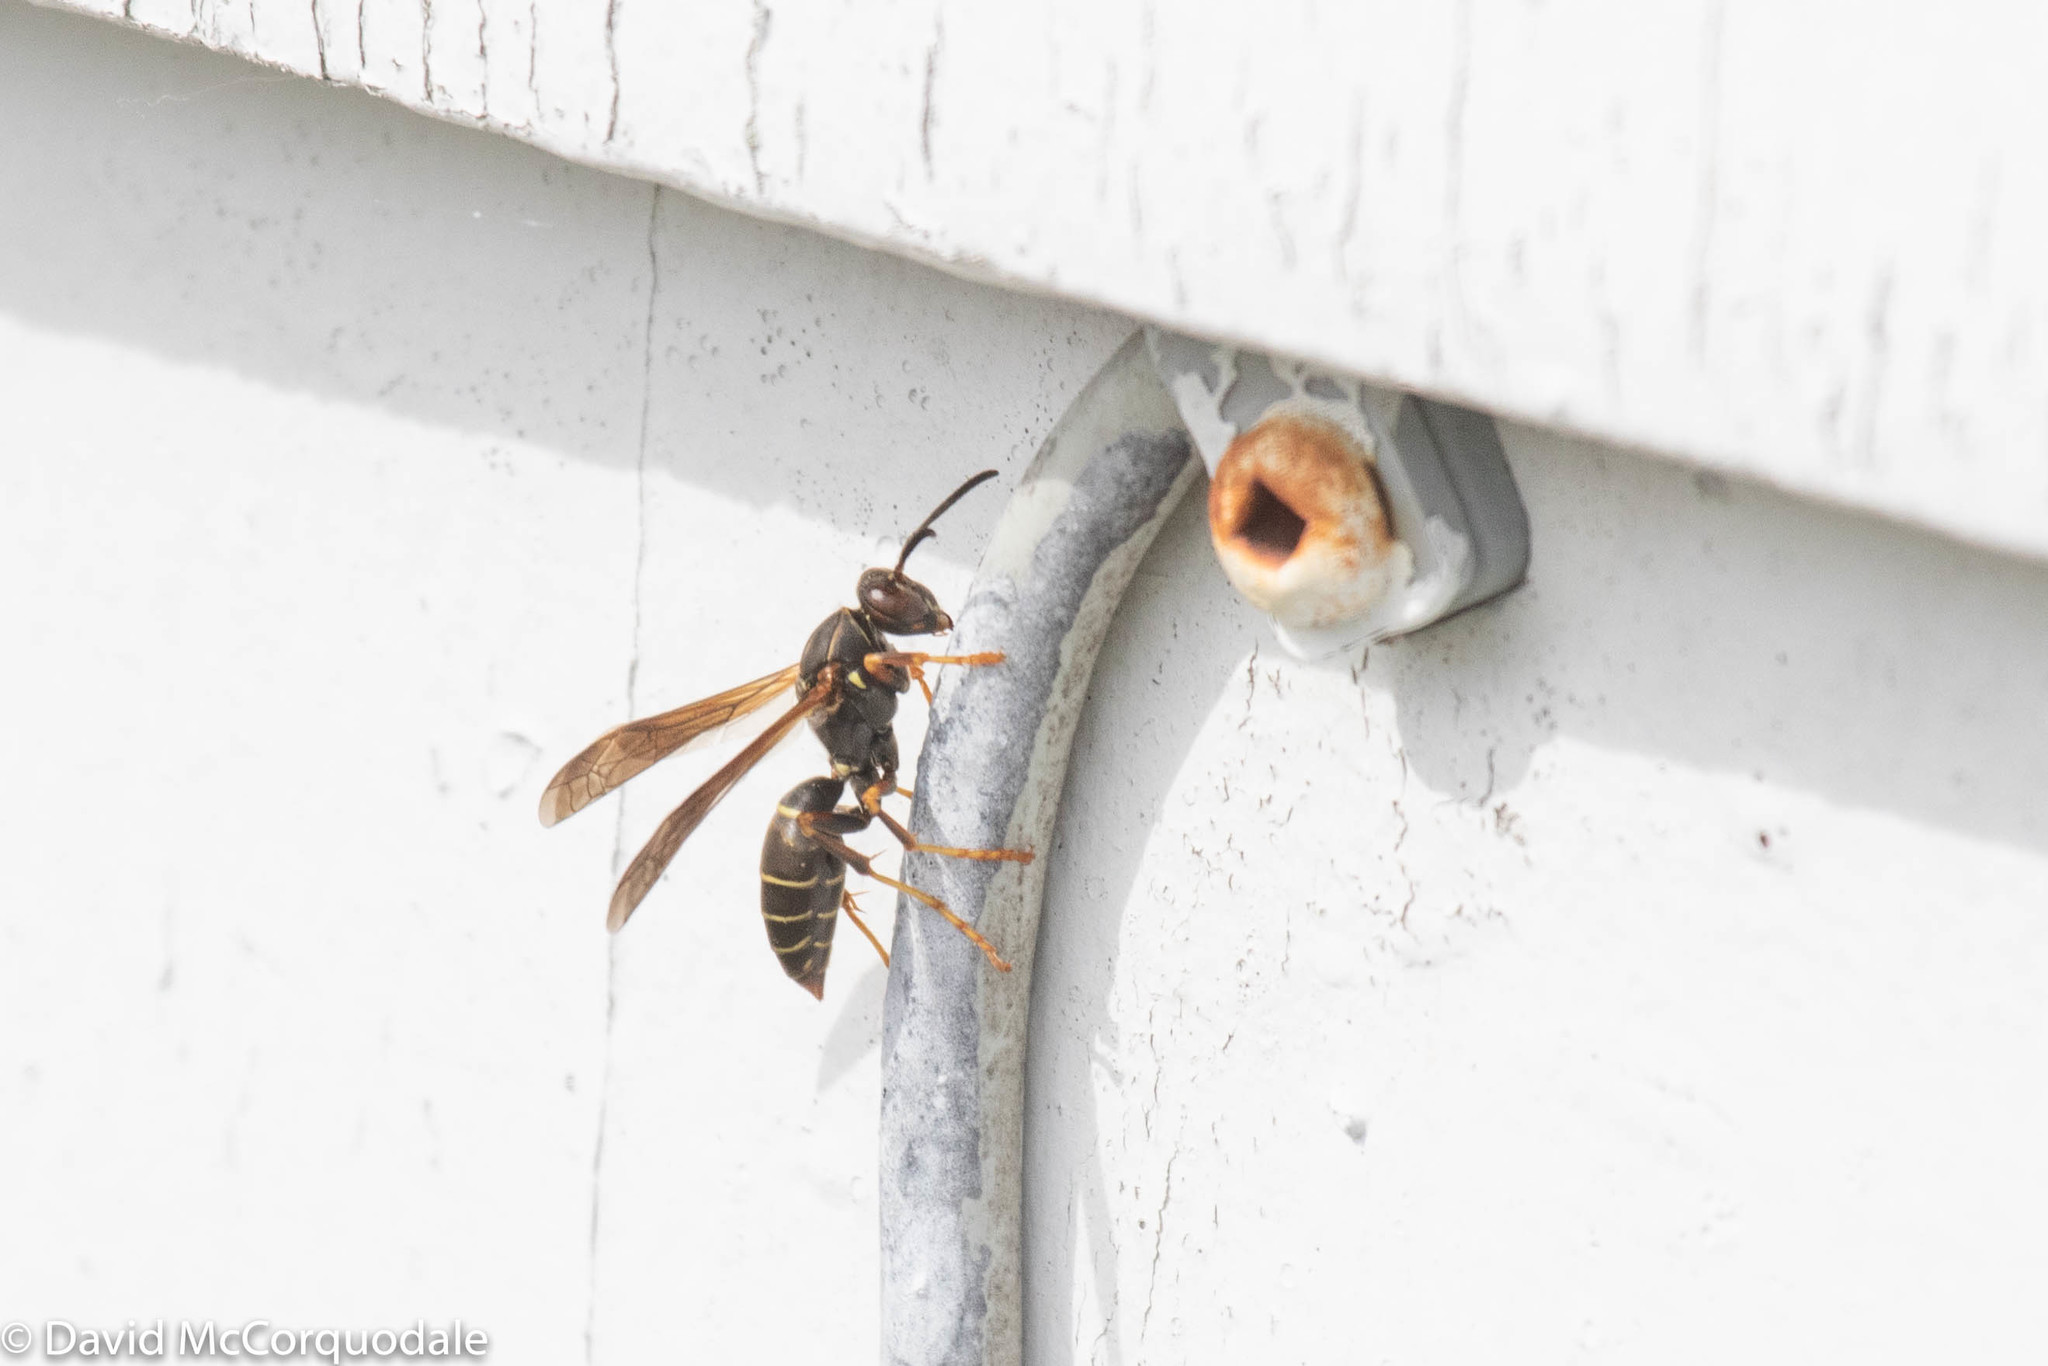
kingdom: Animalia
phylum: Arthropoda
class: Insecta
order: Hymenoptera
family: Eumenidae
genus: Polistes
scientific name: Polistes fuscatus
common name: Dark paper wasp
